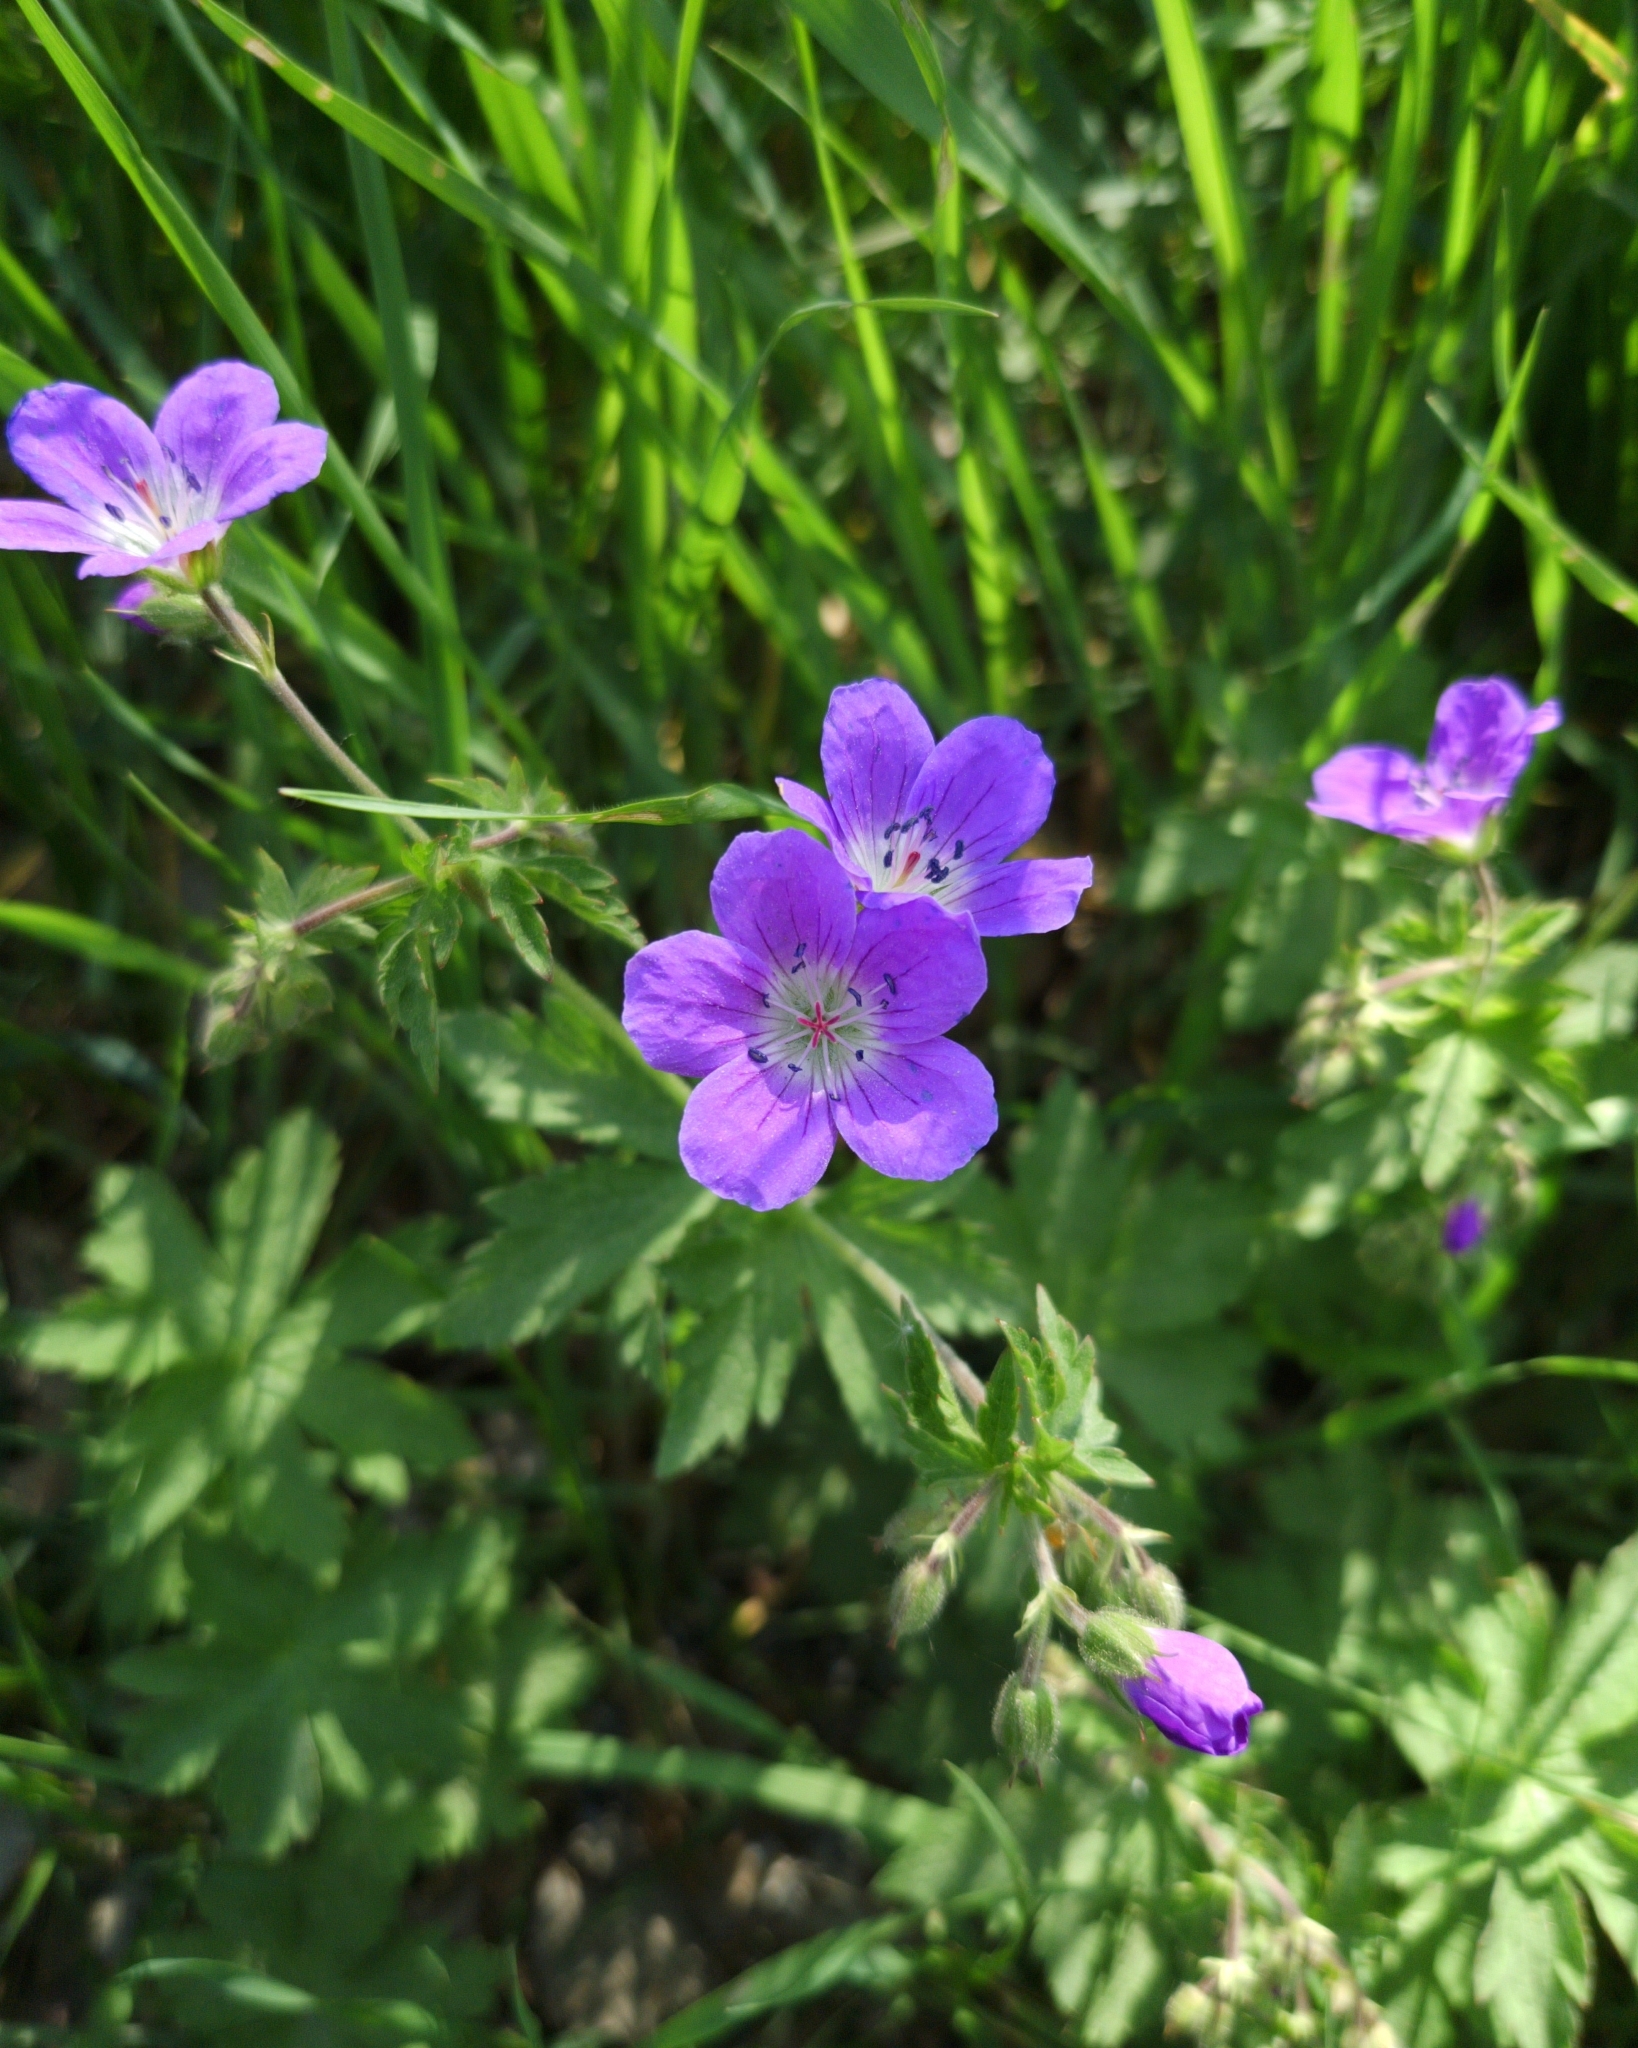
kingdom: Plantae
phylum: Tracheophyta
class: Magnoliopsida
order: Geraniales
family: Geraniaceae
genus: Geranium
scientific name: Geranium sylvaticum
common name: Wood crane's-bill
